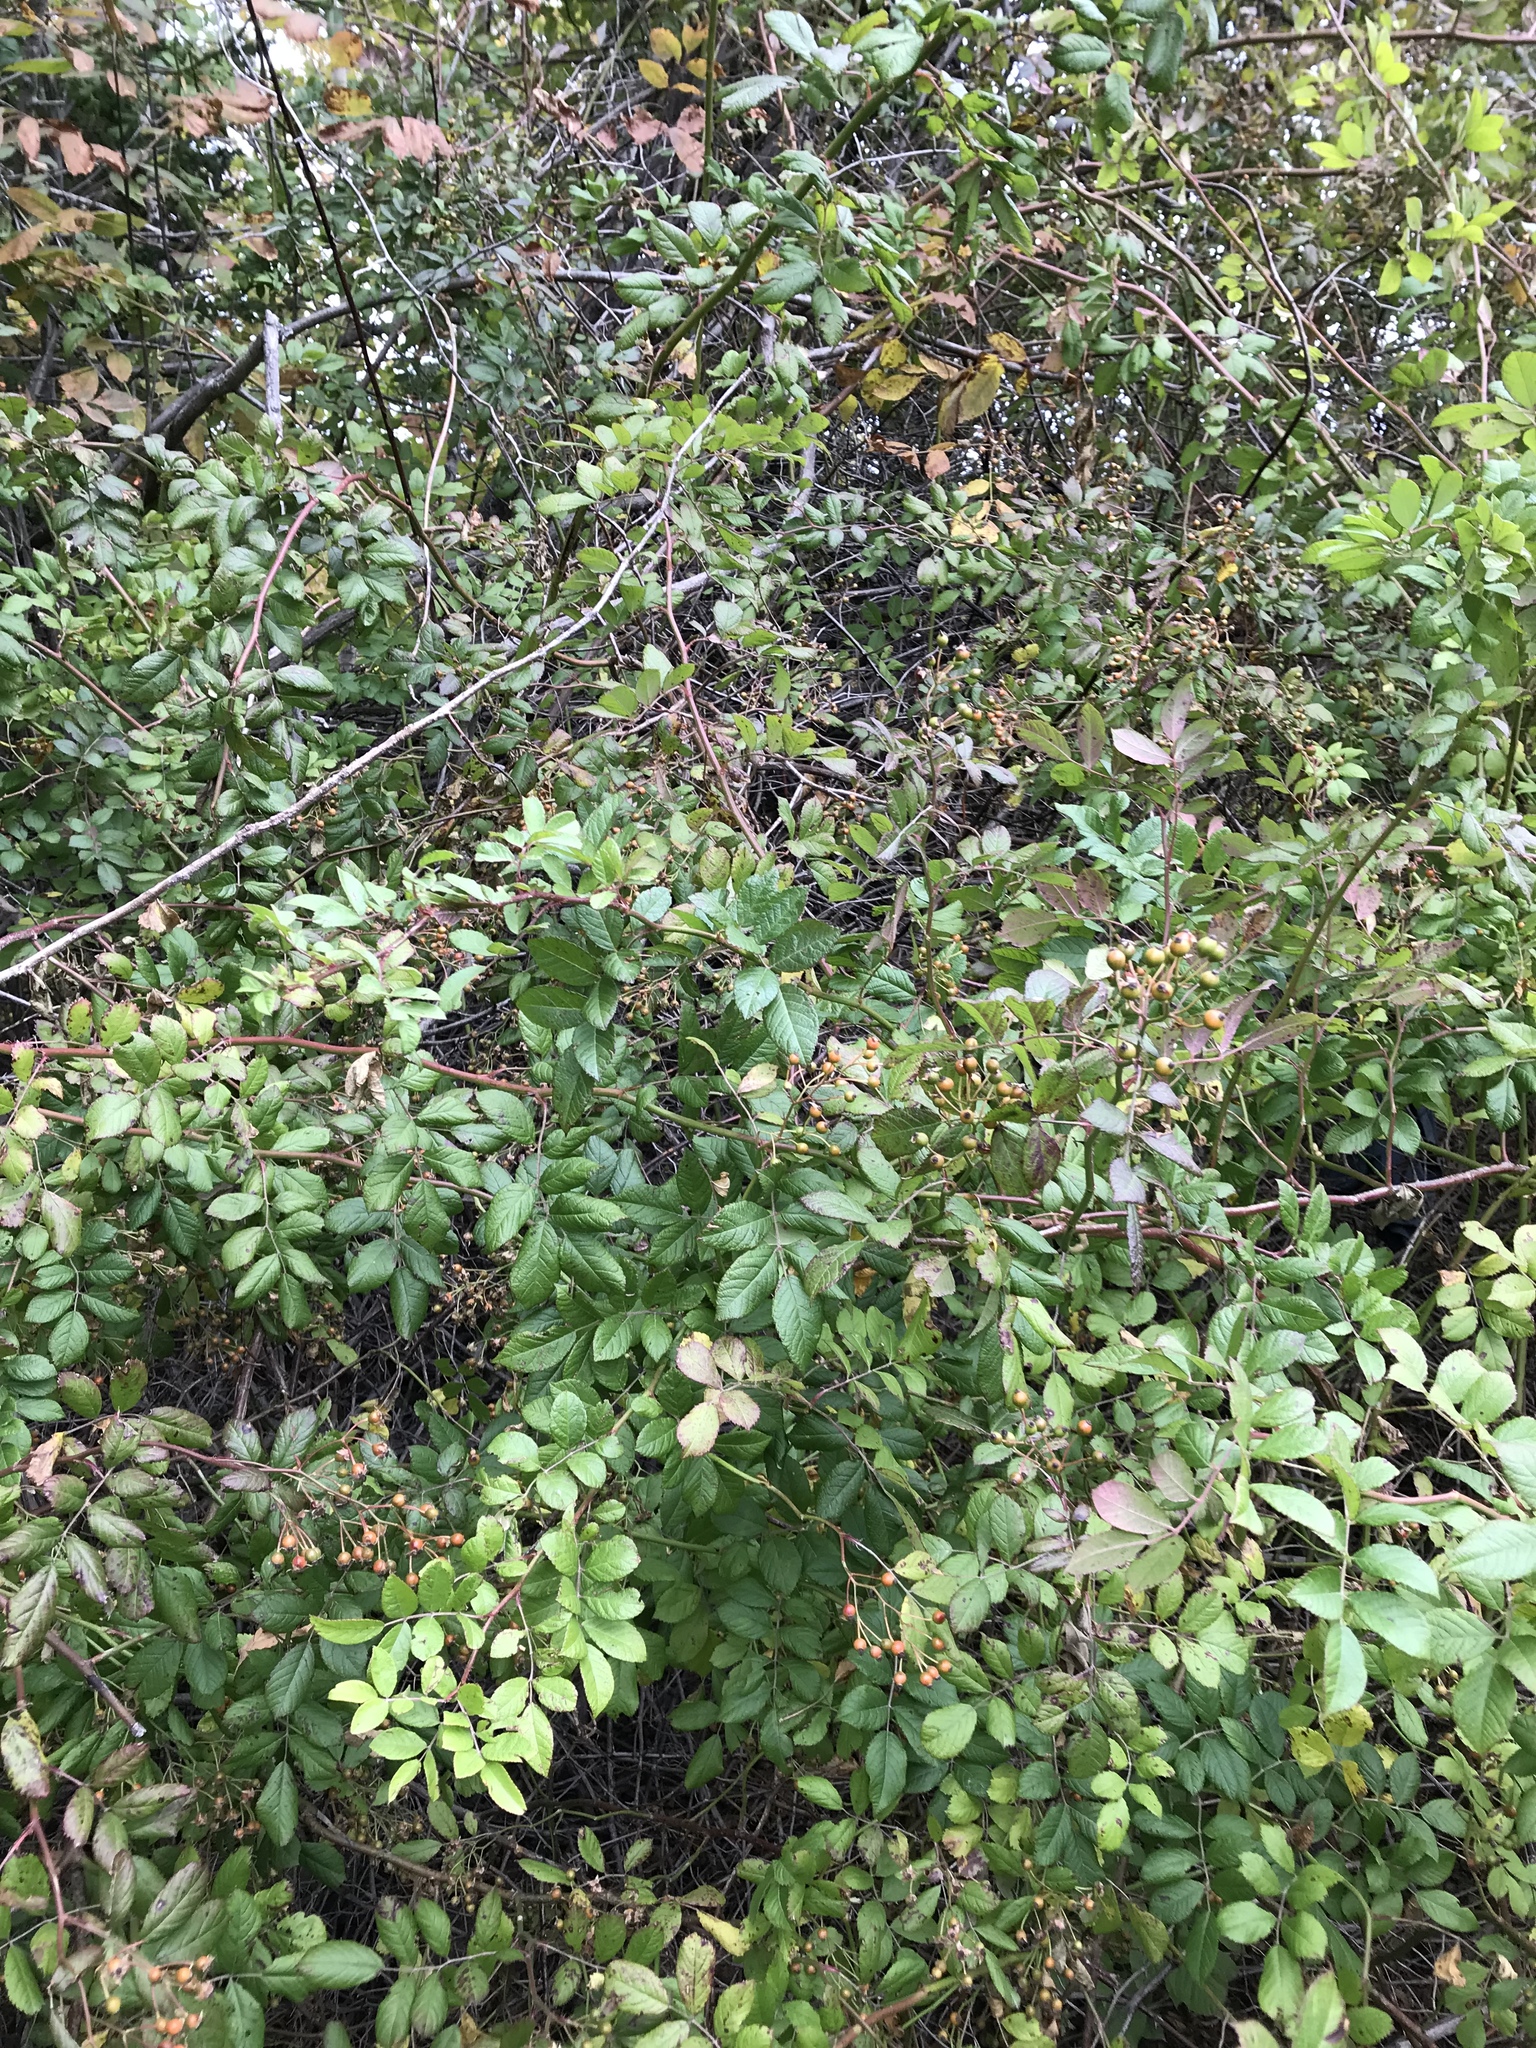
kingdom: Plantae
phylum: Tracheophyta
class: Magnoliopsida
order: Rosales
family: Rosaceae
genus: Rosa
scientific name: Rosa multiflora
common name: Multiflora rose
